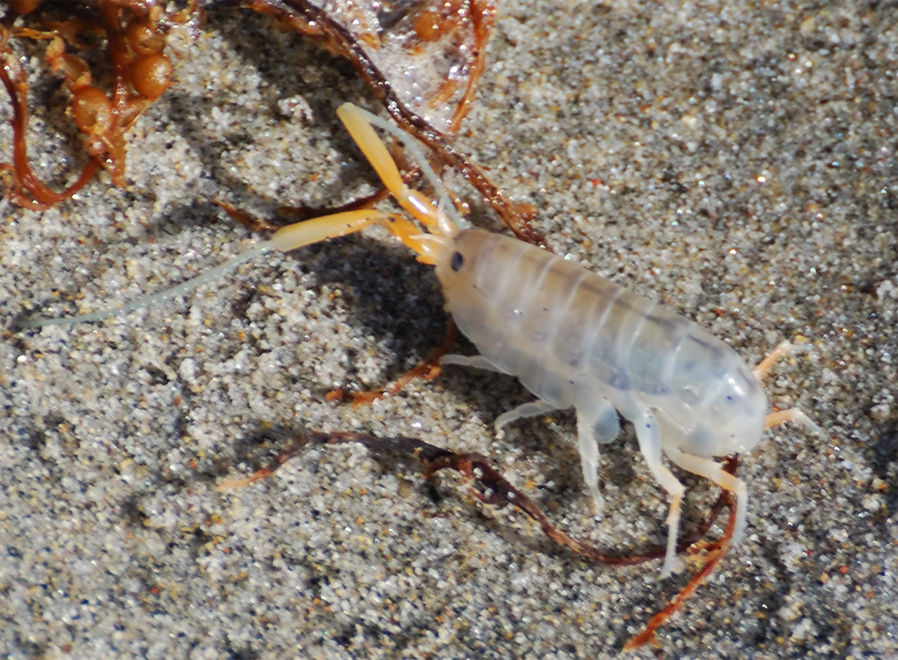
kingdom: Animalia
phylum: Arthropoda
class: Malacostraca
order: Amphipoda
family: Talitridae
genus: Megalorchestia
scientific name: Megalorchestia californiana
